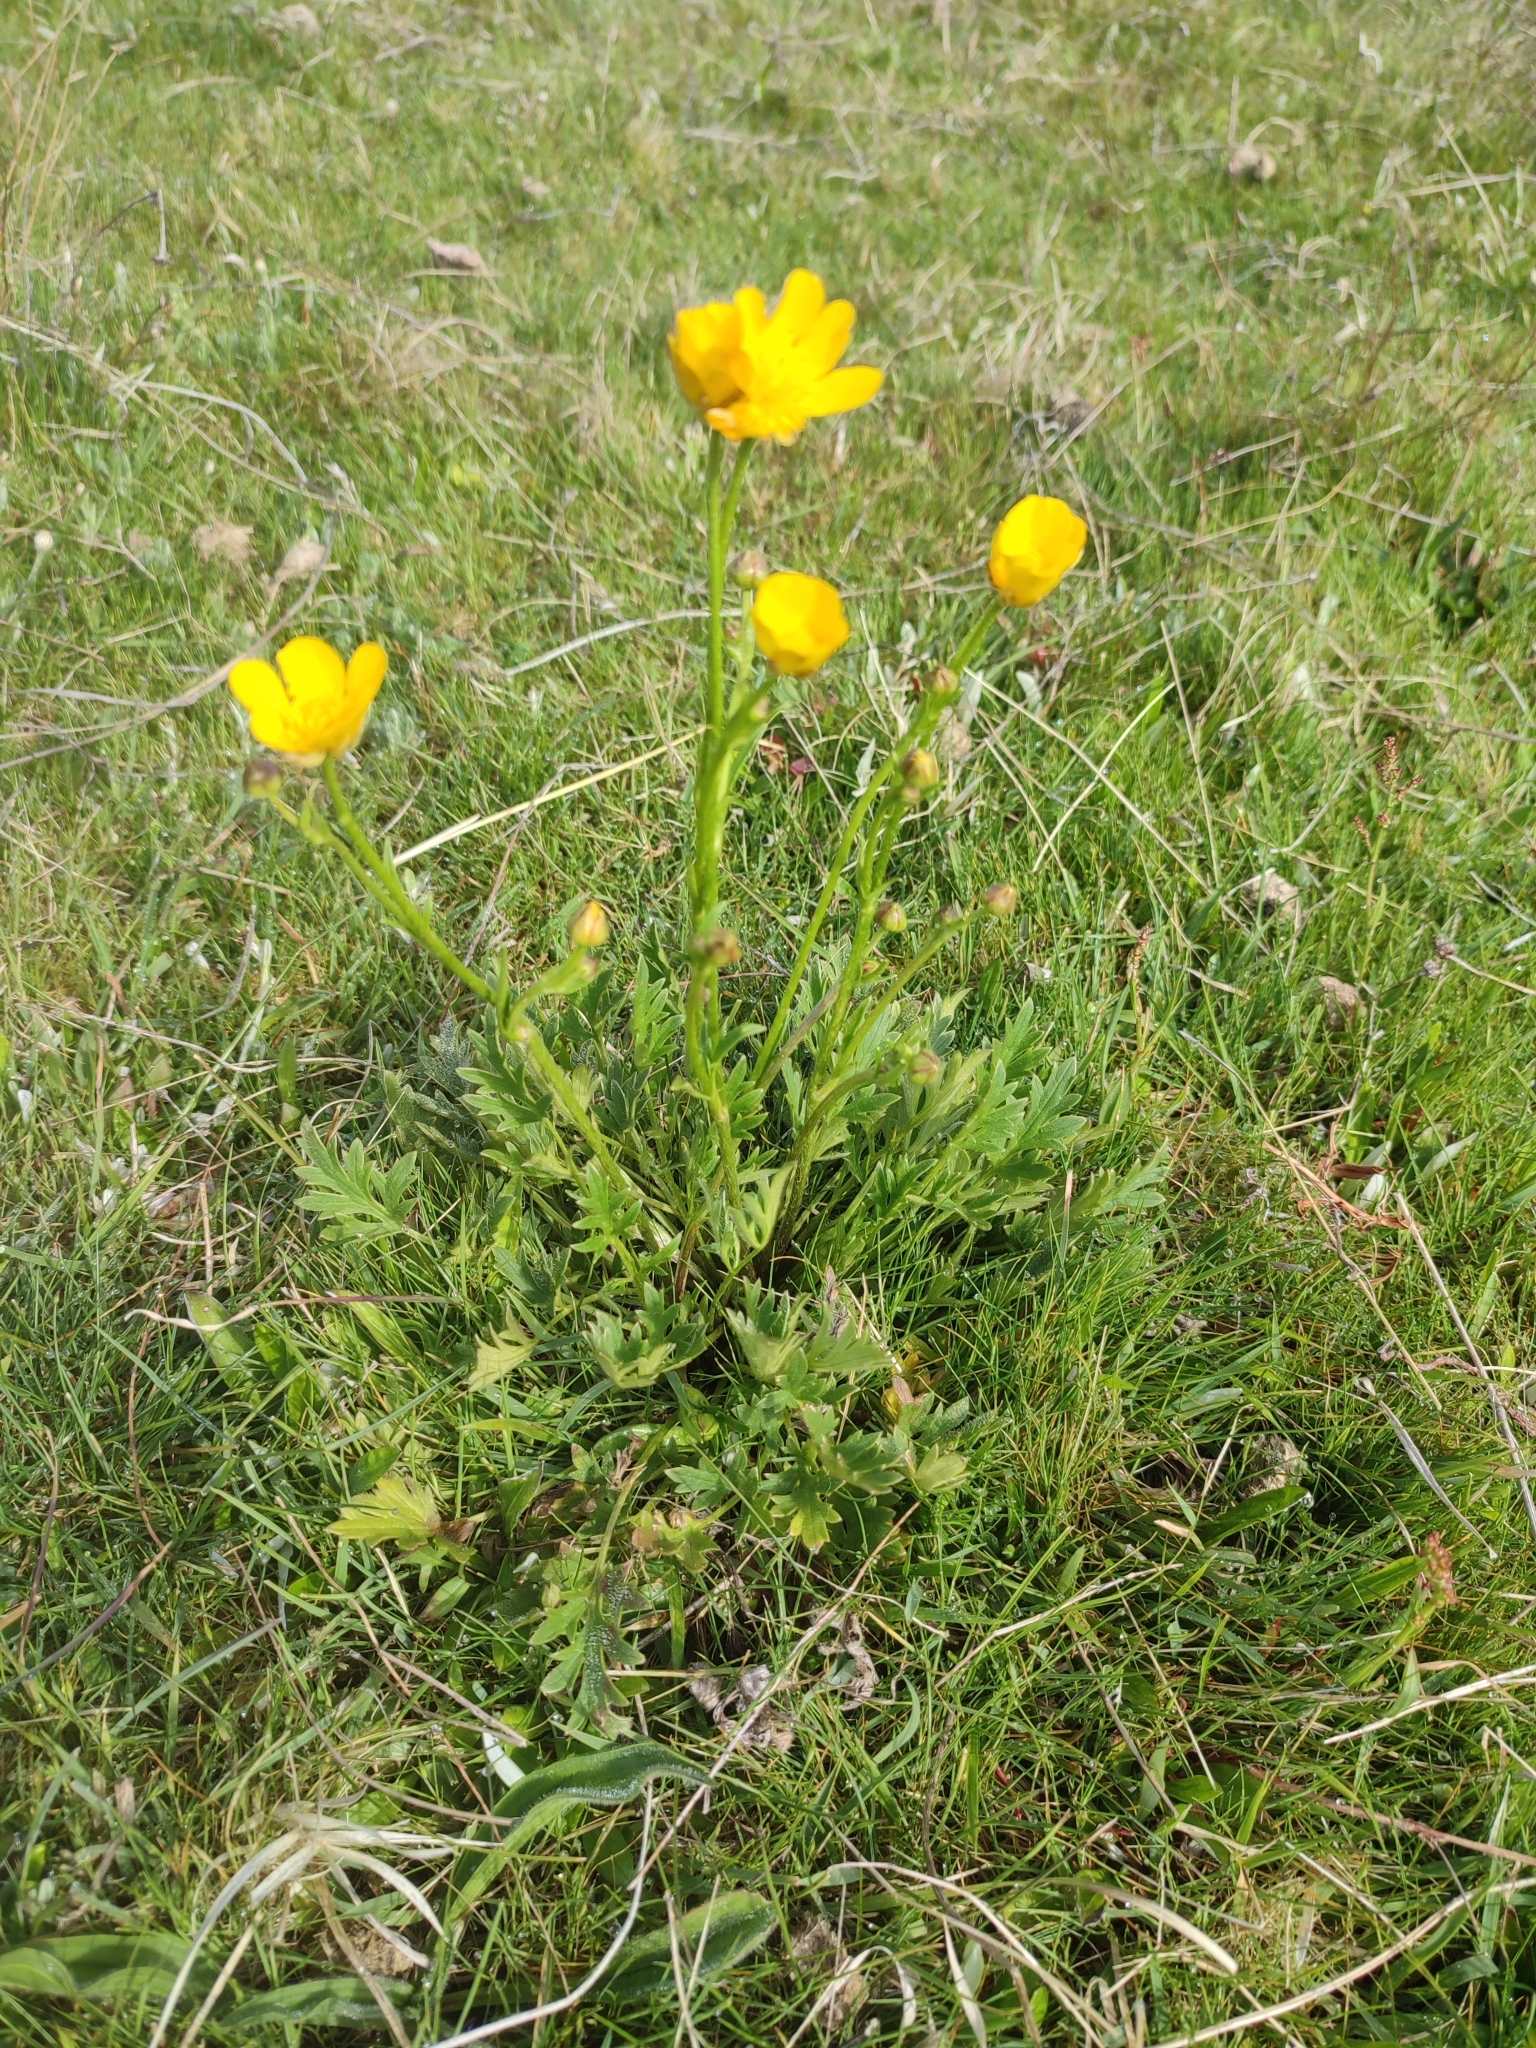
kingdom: Plantae
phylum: Tracheophyta
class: Magnoliopsida
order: Ranunculales
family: Ranunculaceae
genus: Ranunculus
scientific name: Ranunculus lappaceus
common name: Australian buttercup
